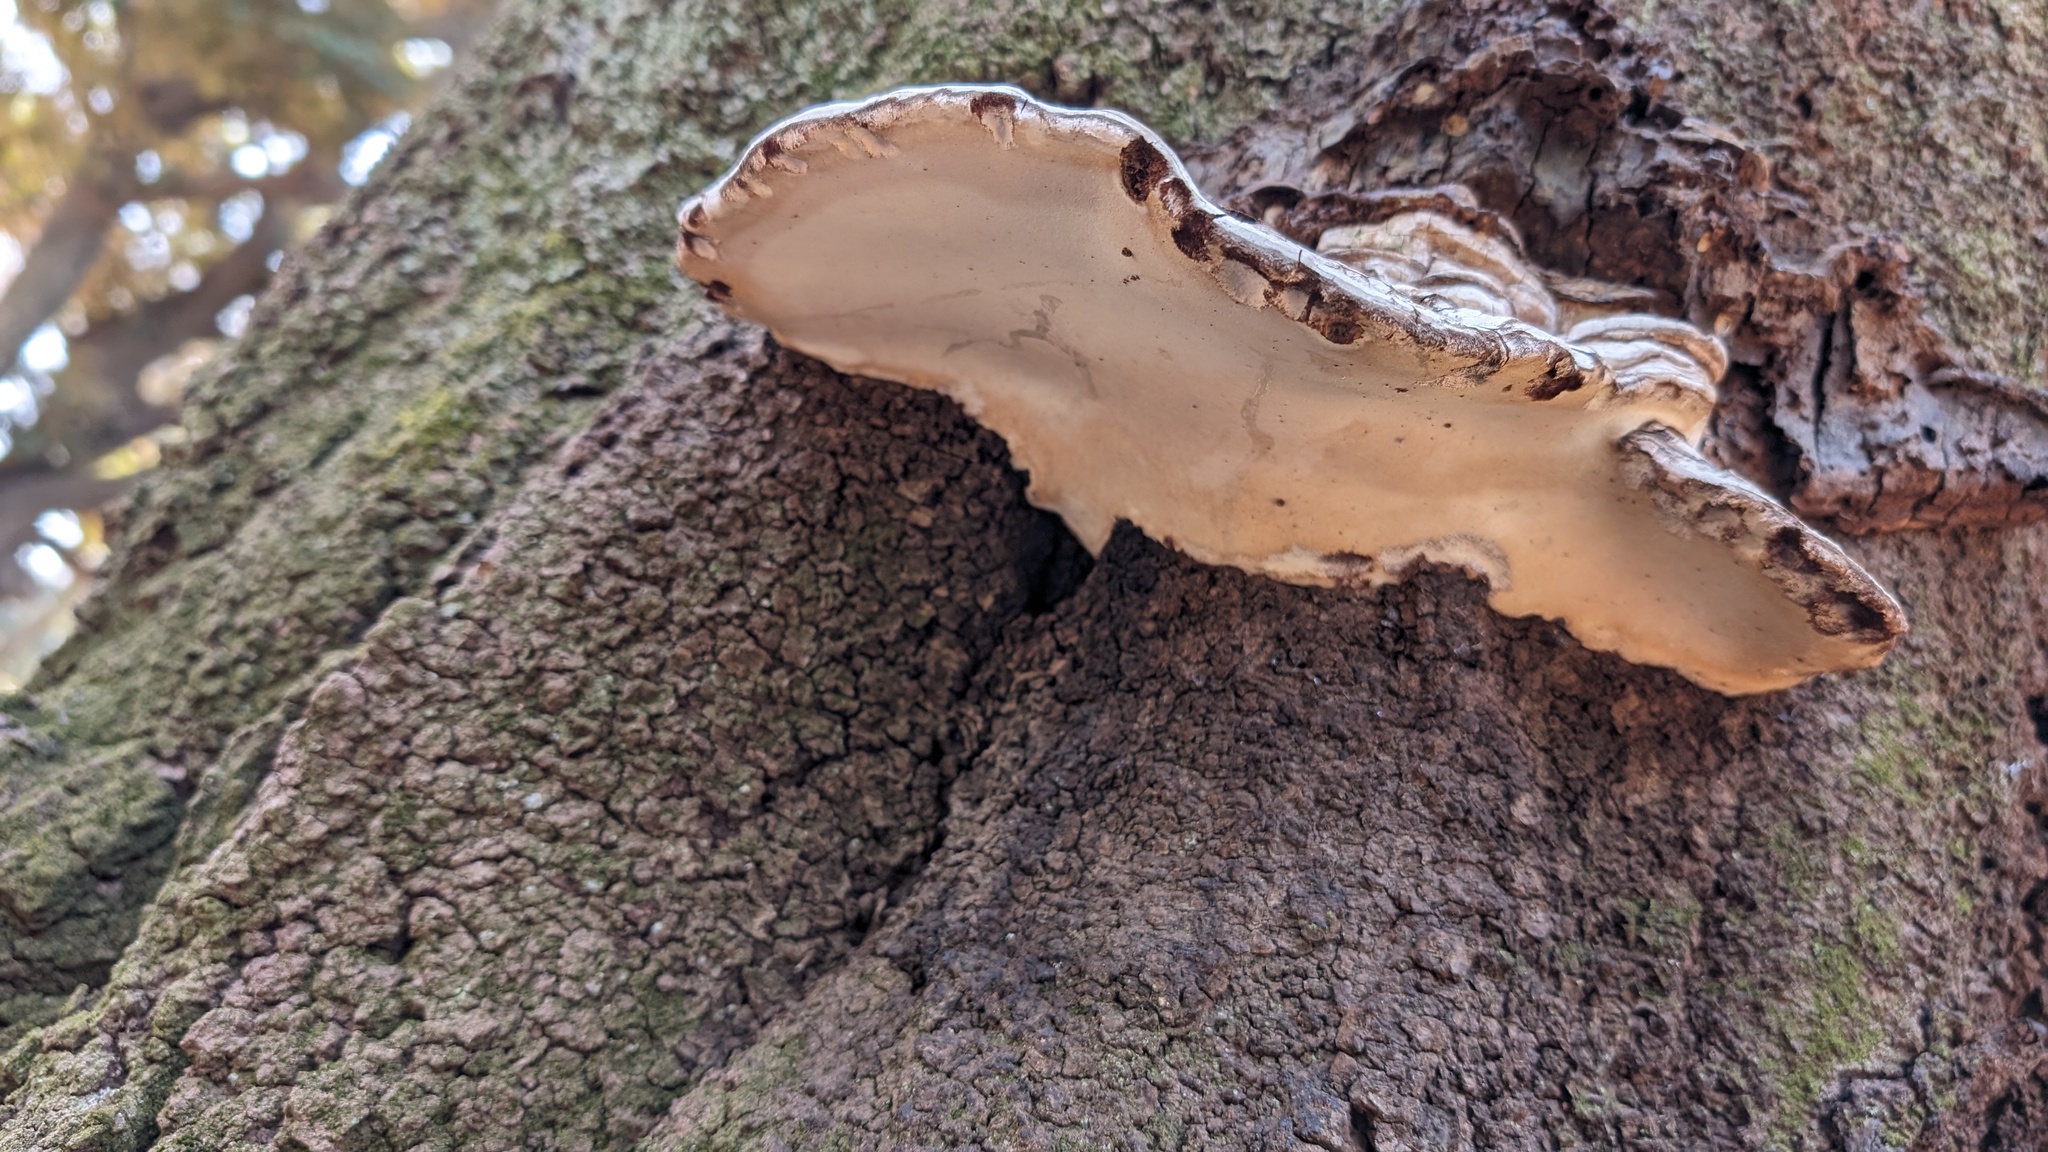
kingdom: Fungi
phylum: Basidiomycota
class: Agaricomycetes
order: Polyporales
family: Polyporaceae
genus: Ganoderma
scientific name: Ganoderma applanatum
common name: Artist's bracket
